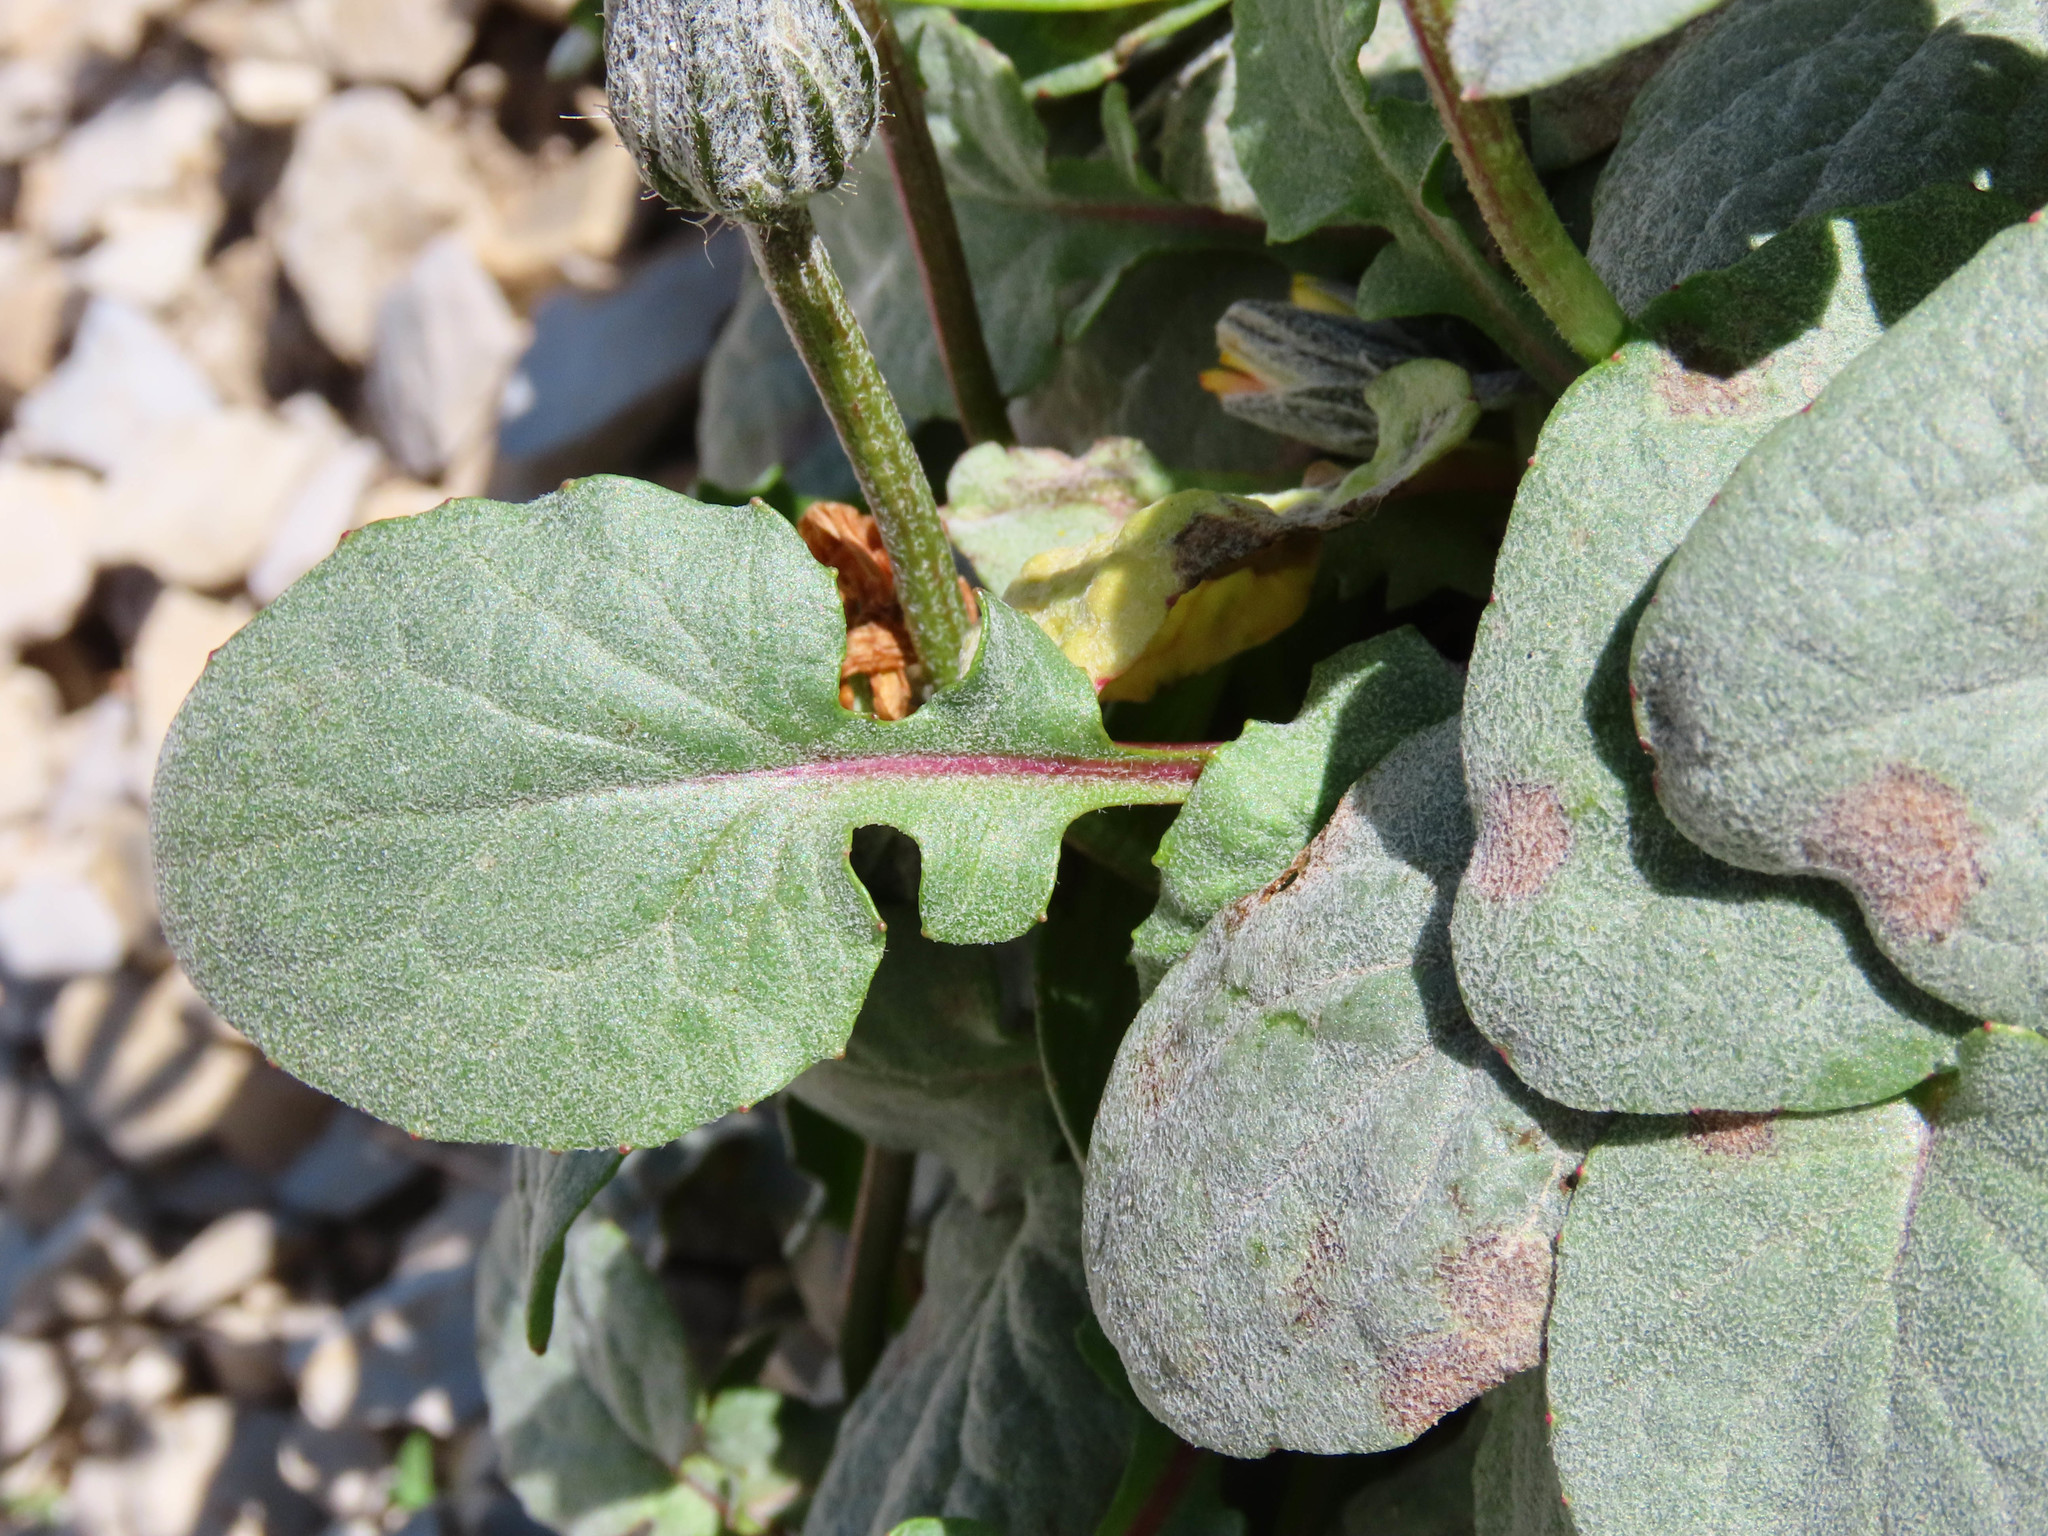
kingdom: Plantae
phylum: Tracheophyta
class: Magnoliopsida
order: Asterales
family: Asteraceae
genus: Crepis
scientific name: Crepis pygmaea
